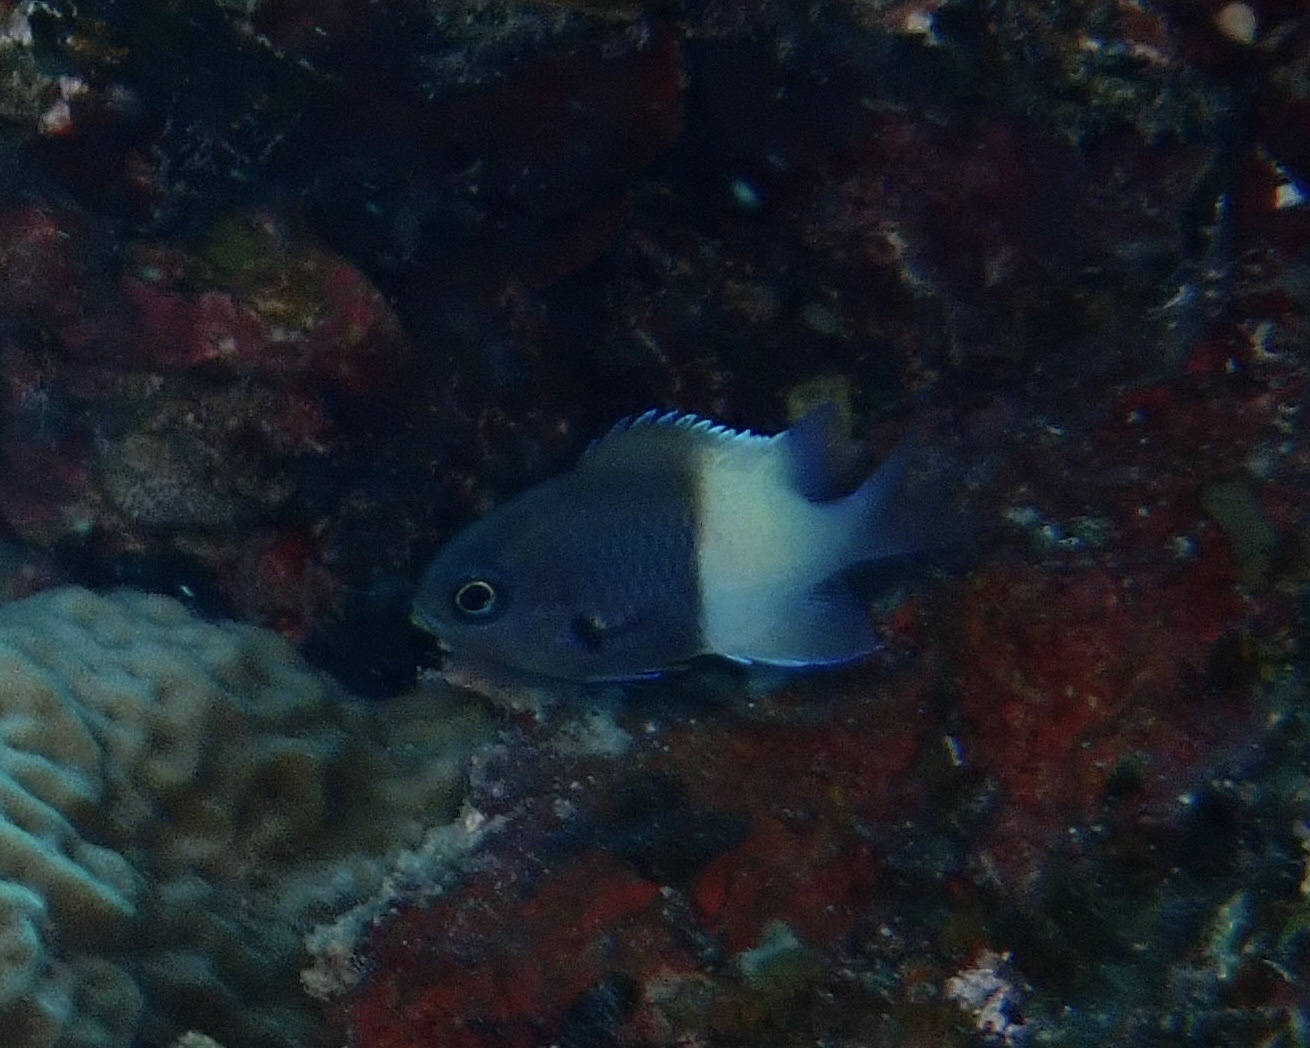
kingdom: Animalia
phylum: Chordata
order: Perciformes
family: Pomacentridae
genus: Chromis
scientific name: Chromis dimidiata
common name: Half-and-half chromis
